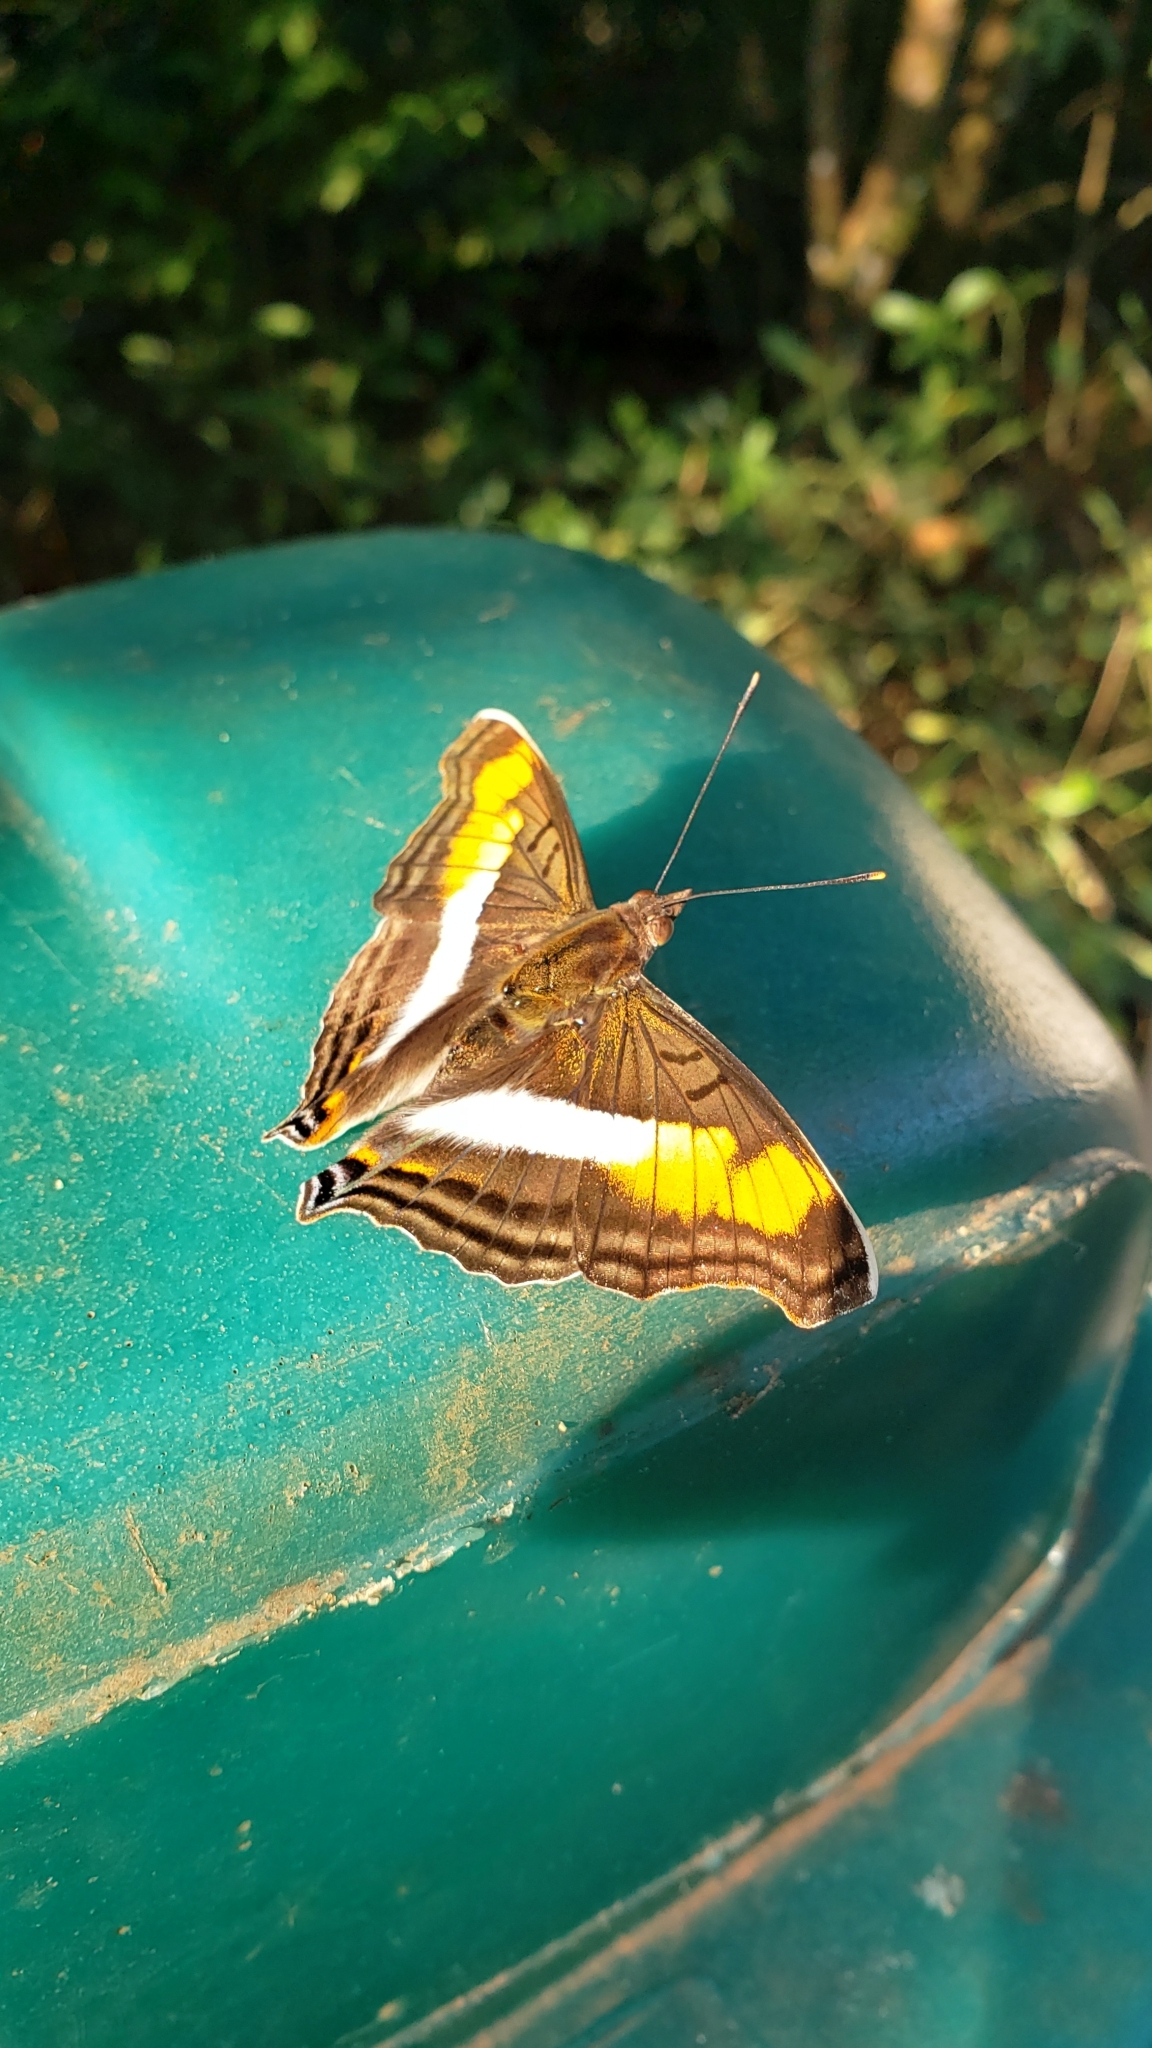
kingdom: Animalia
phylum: Arthropoda
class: Insecta
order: Lepidoptera
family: Nymphalidae
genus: Doxocopa
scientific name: Doxocopa linda
